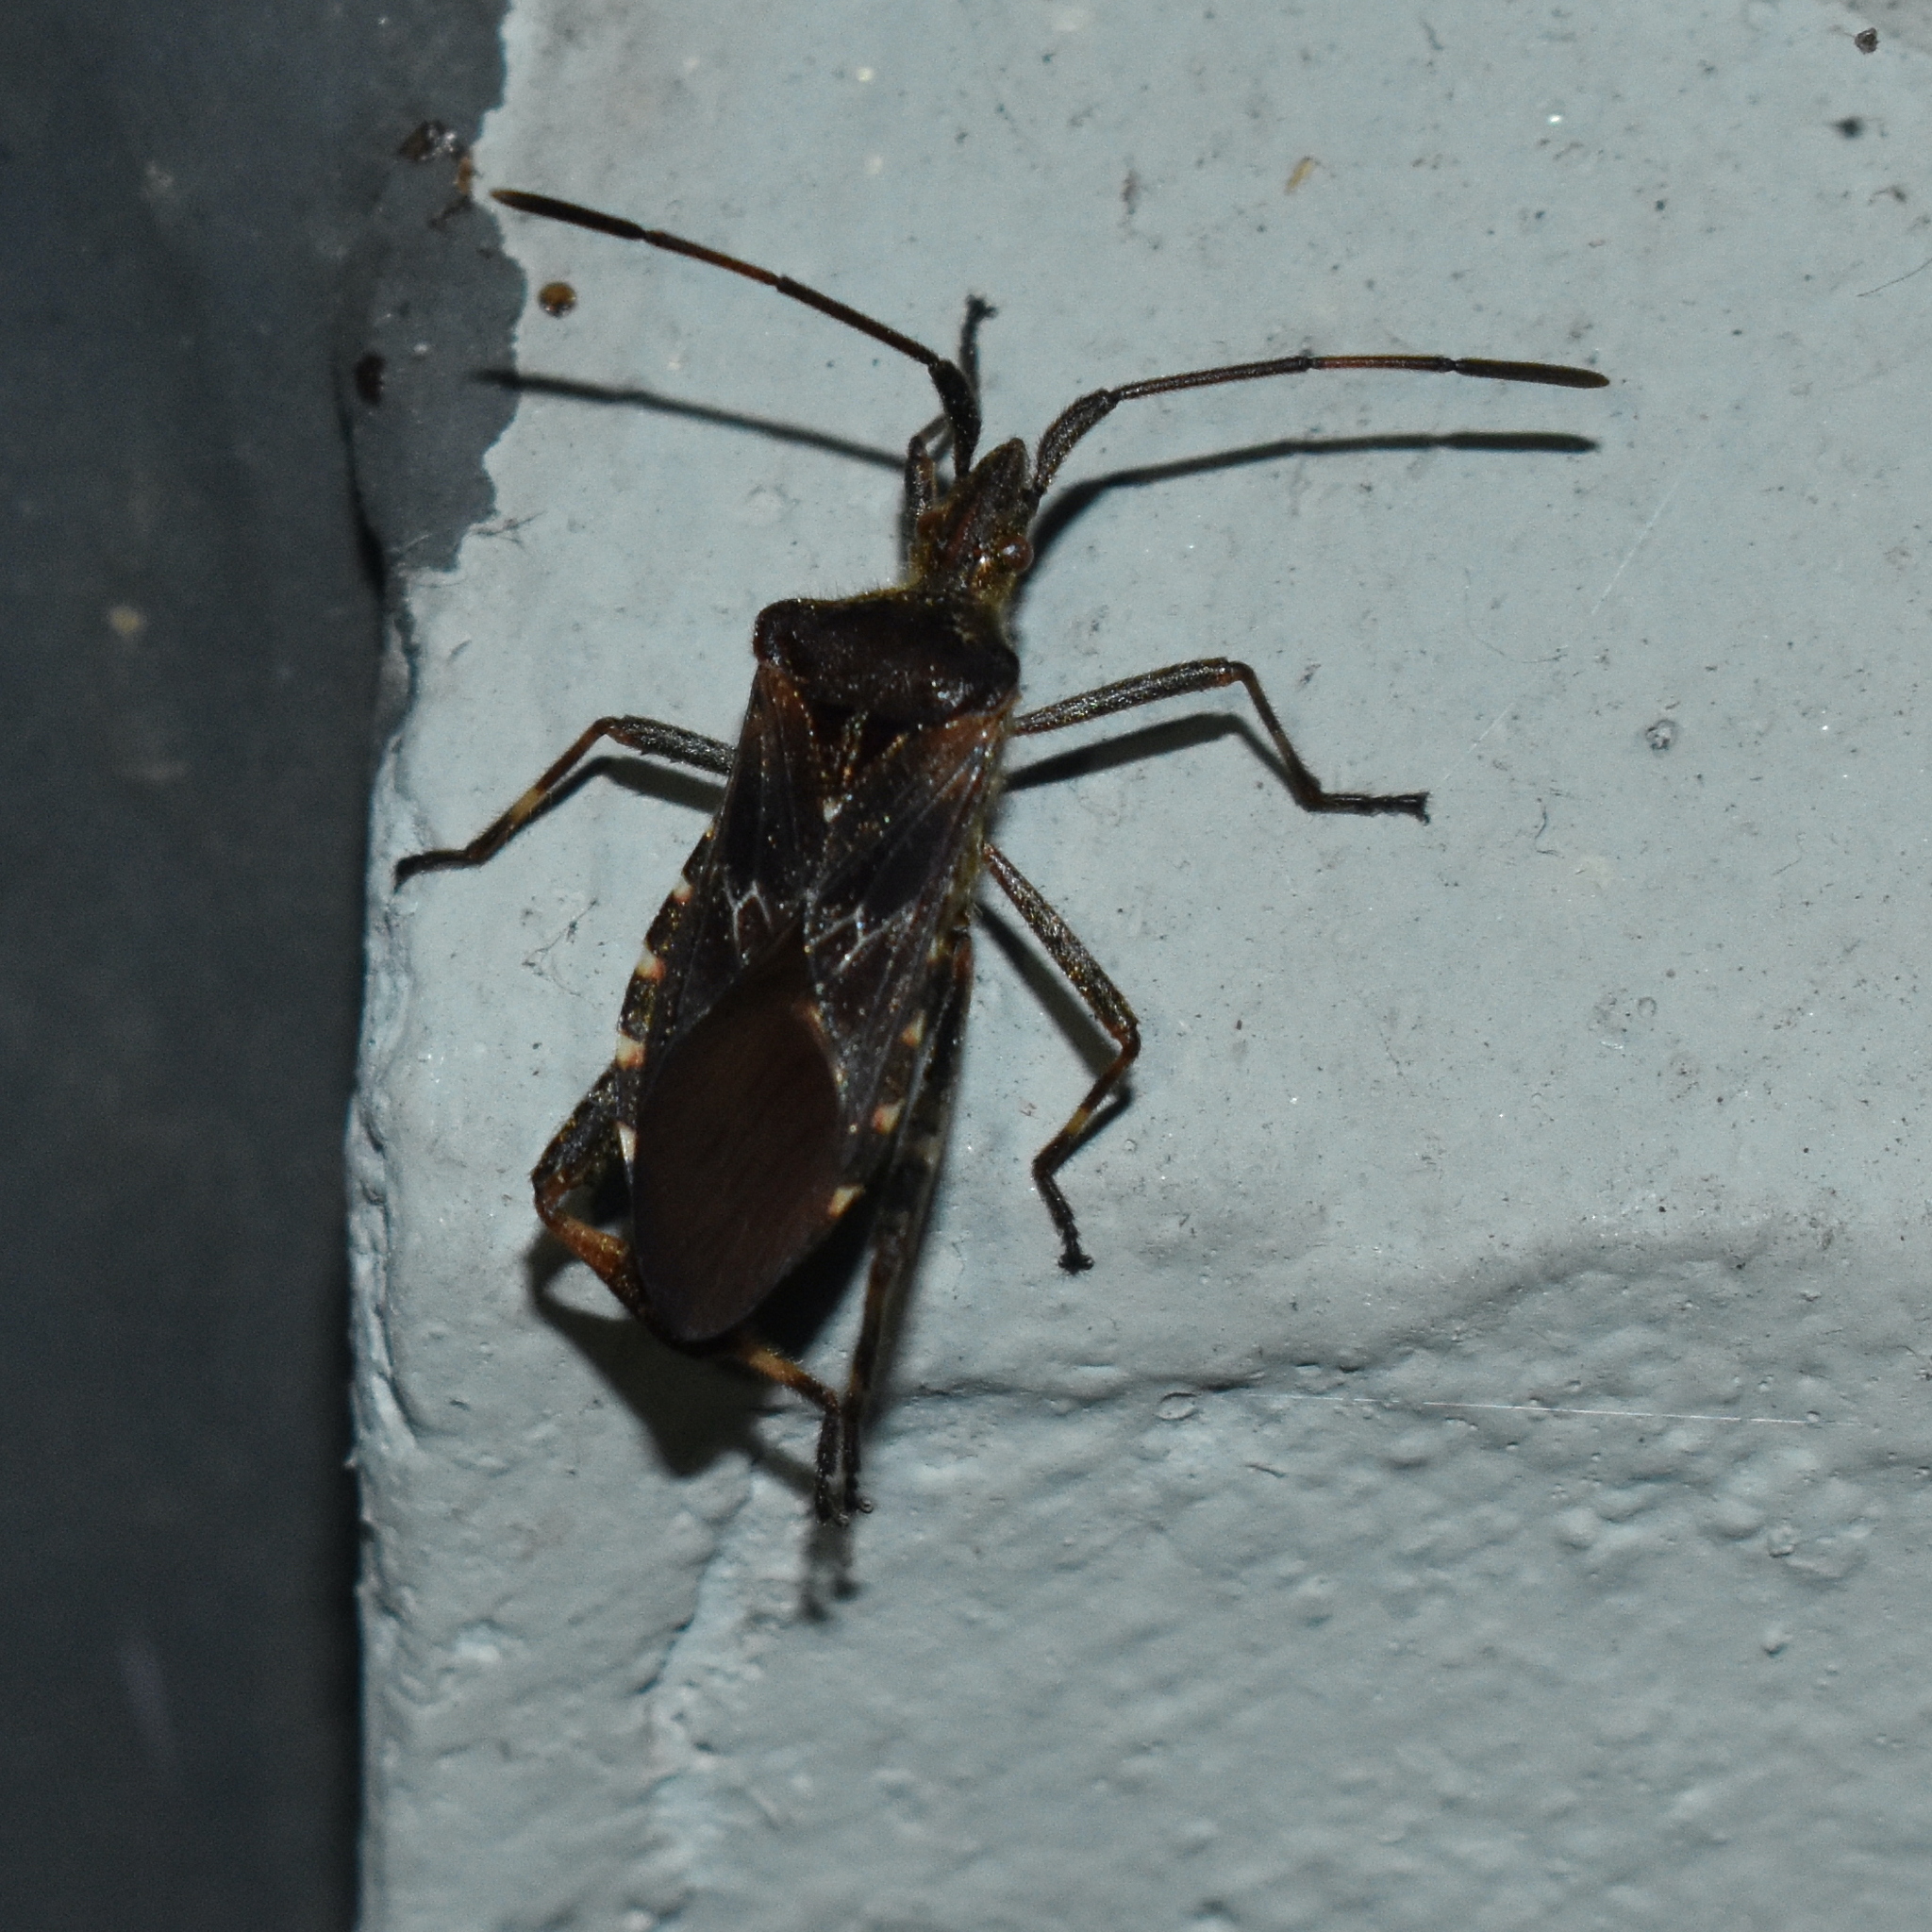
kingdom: Animalia
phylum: Arthropoda
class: Insecta
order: Hemiptera
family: Coreidae
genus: Leptoglossus
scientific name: Leptoglossus occidentalis
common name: Western conifer-seed bug
